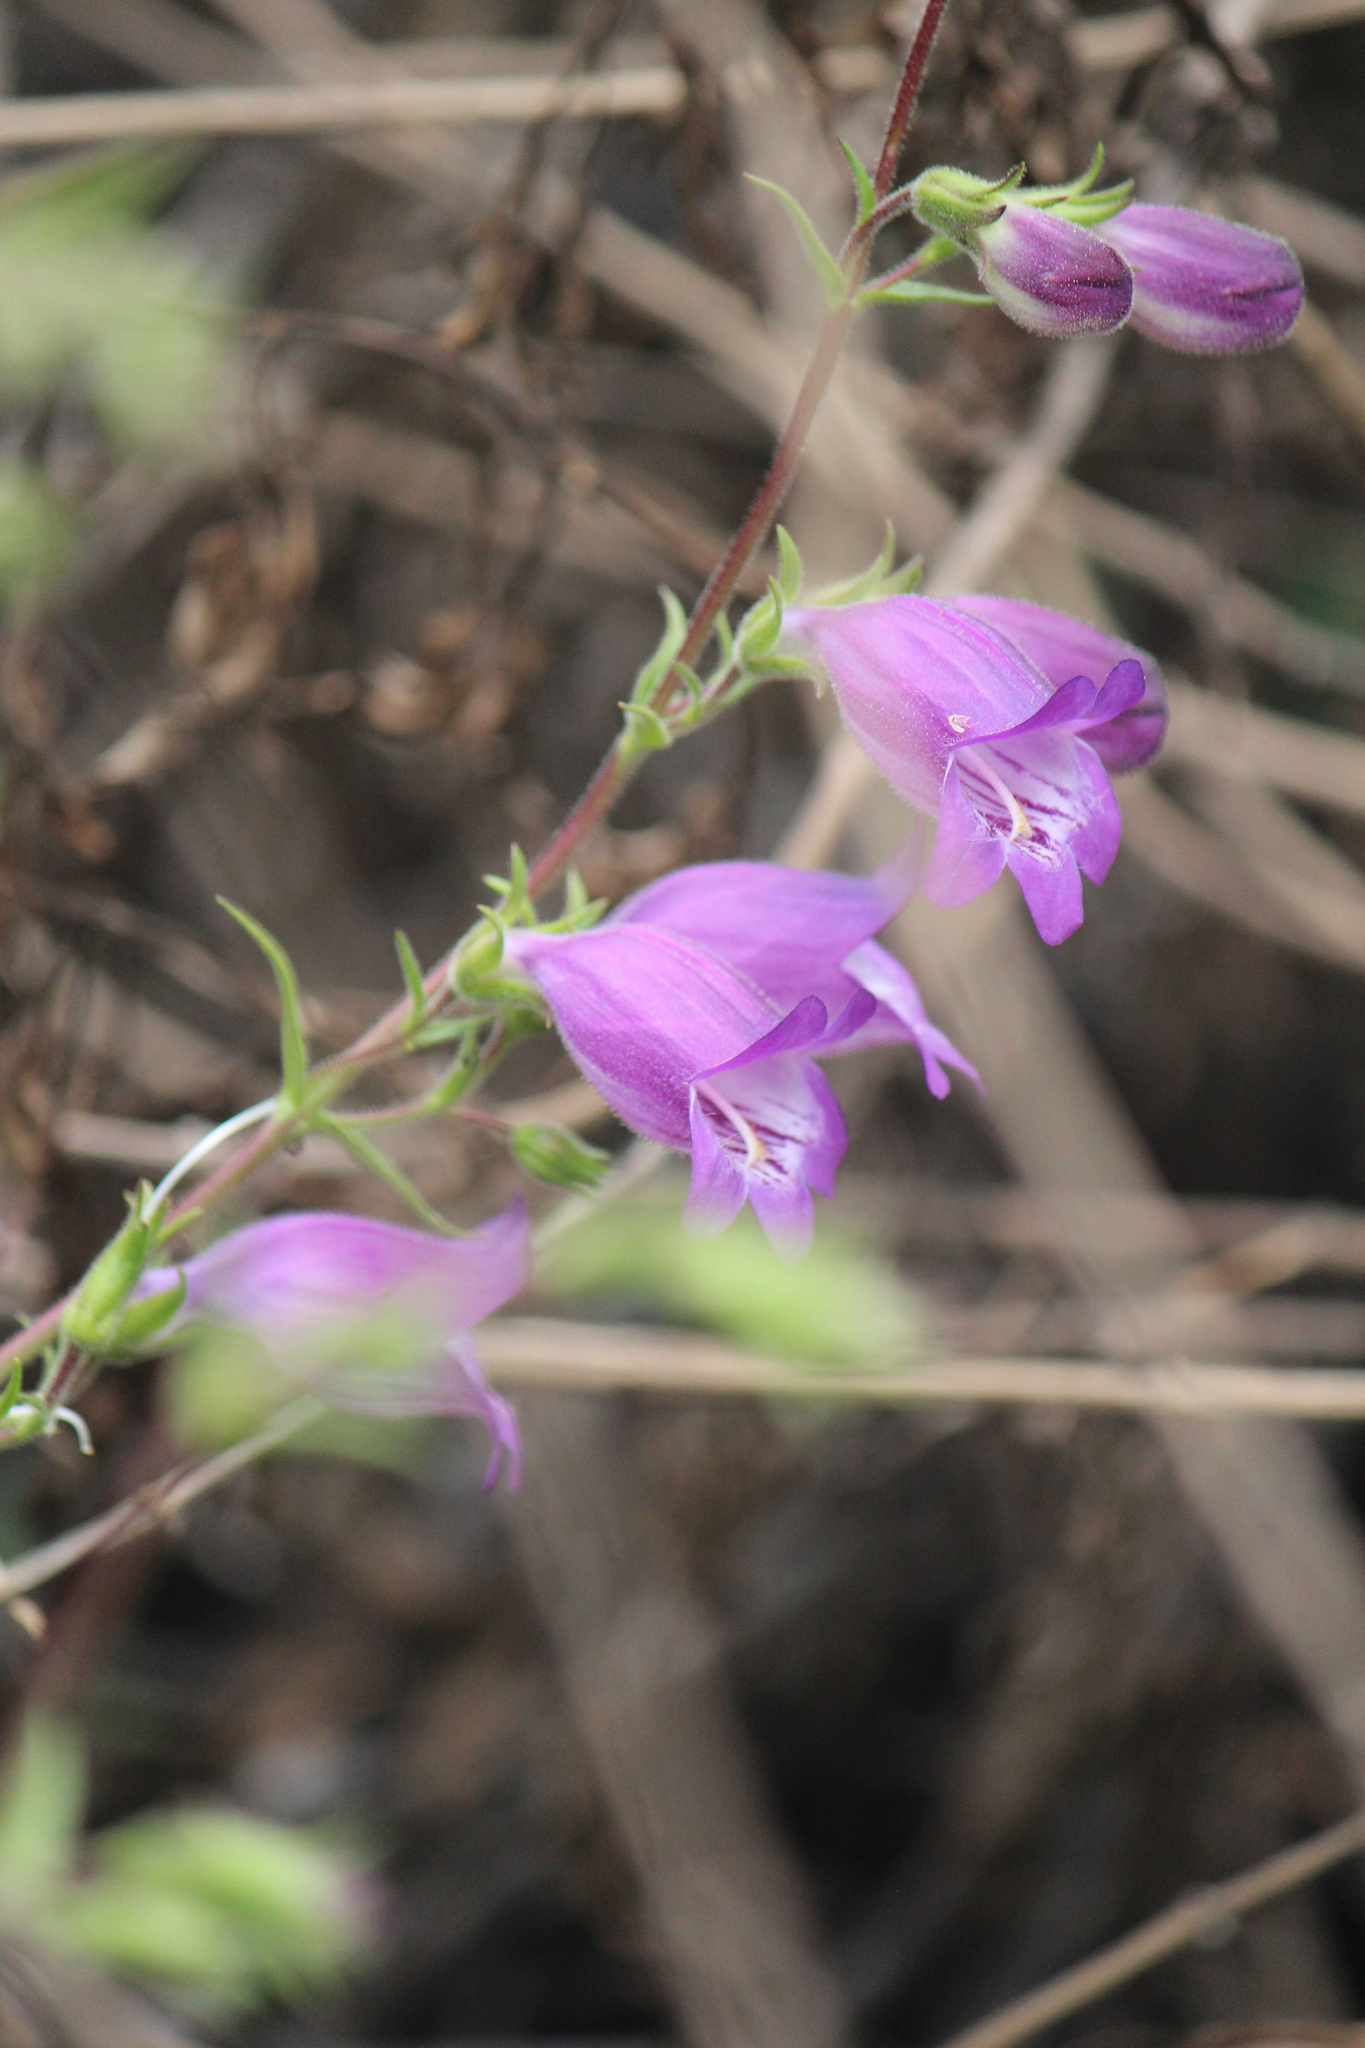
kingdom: Plantae
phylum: Tracheophyta
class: Magnoliopsida
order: Lamiales
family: Plantaginaceae
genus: Penstemon
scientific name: Penstemon leonensis
